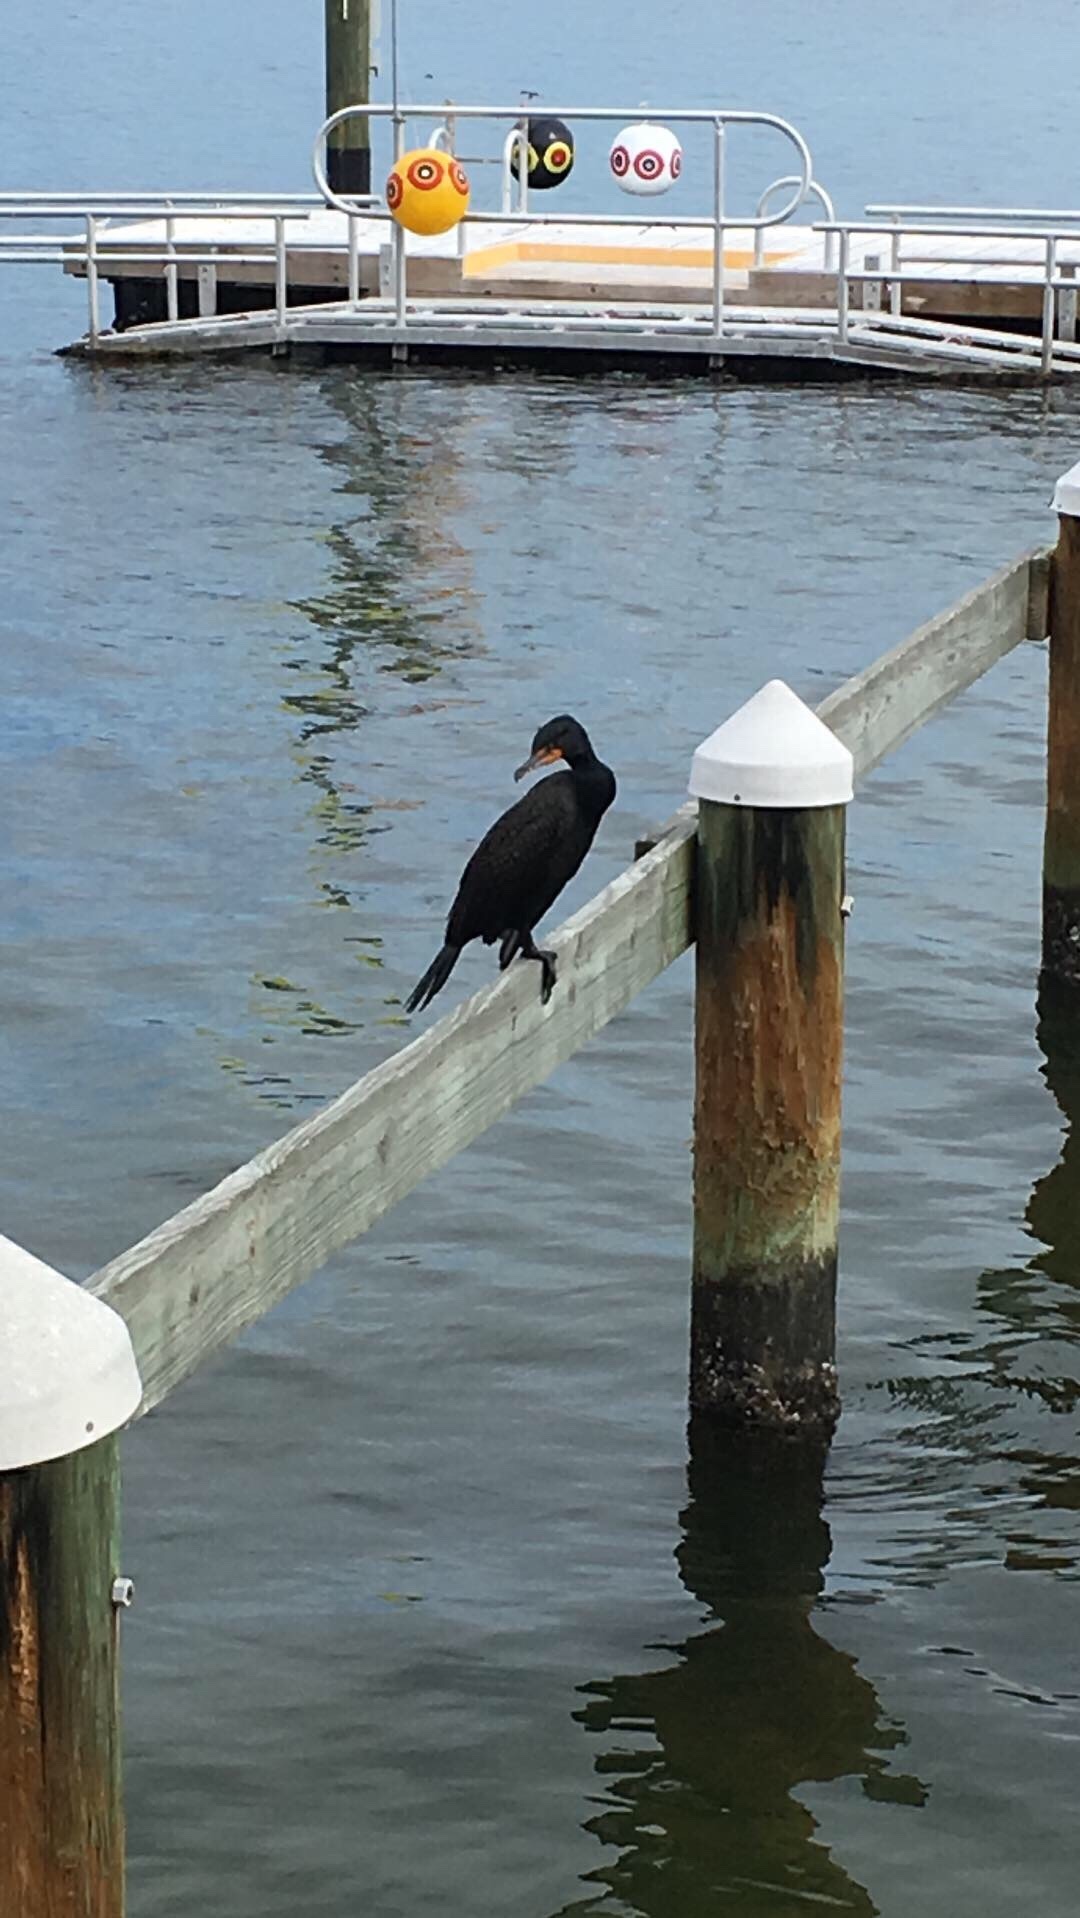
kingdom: Animalia
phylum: Chordata
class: Aves
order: Suliformes
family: Phalacrocoracidae
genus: Phalacrocorax
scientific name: Phalacrocorax auritus
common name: Double-crested cormorant
